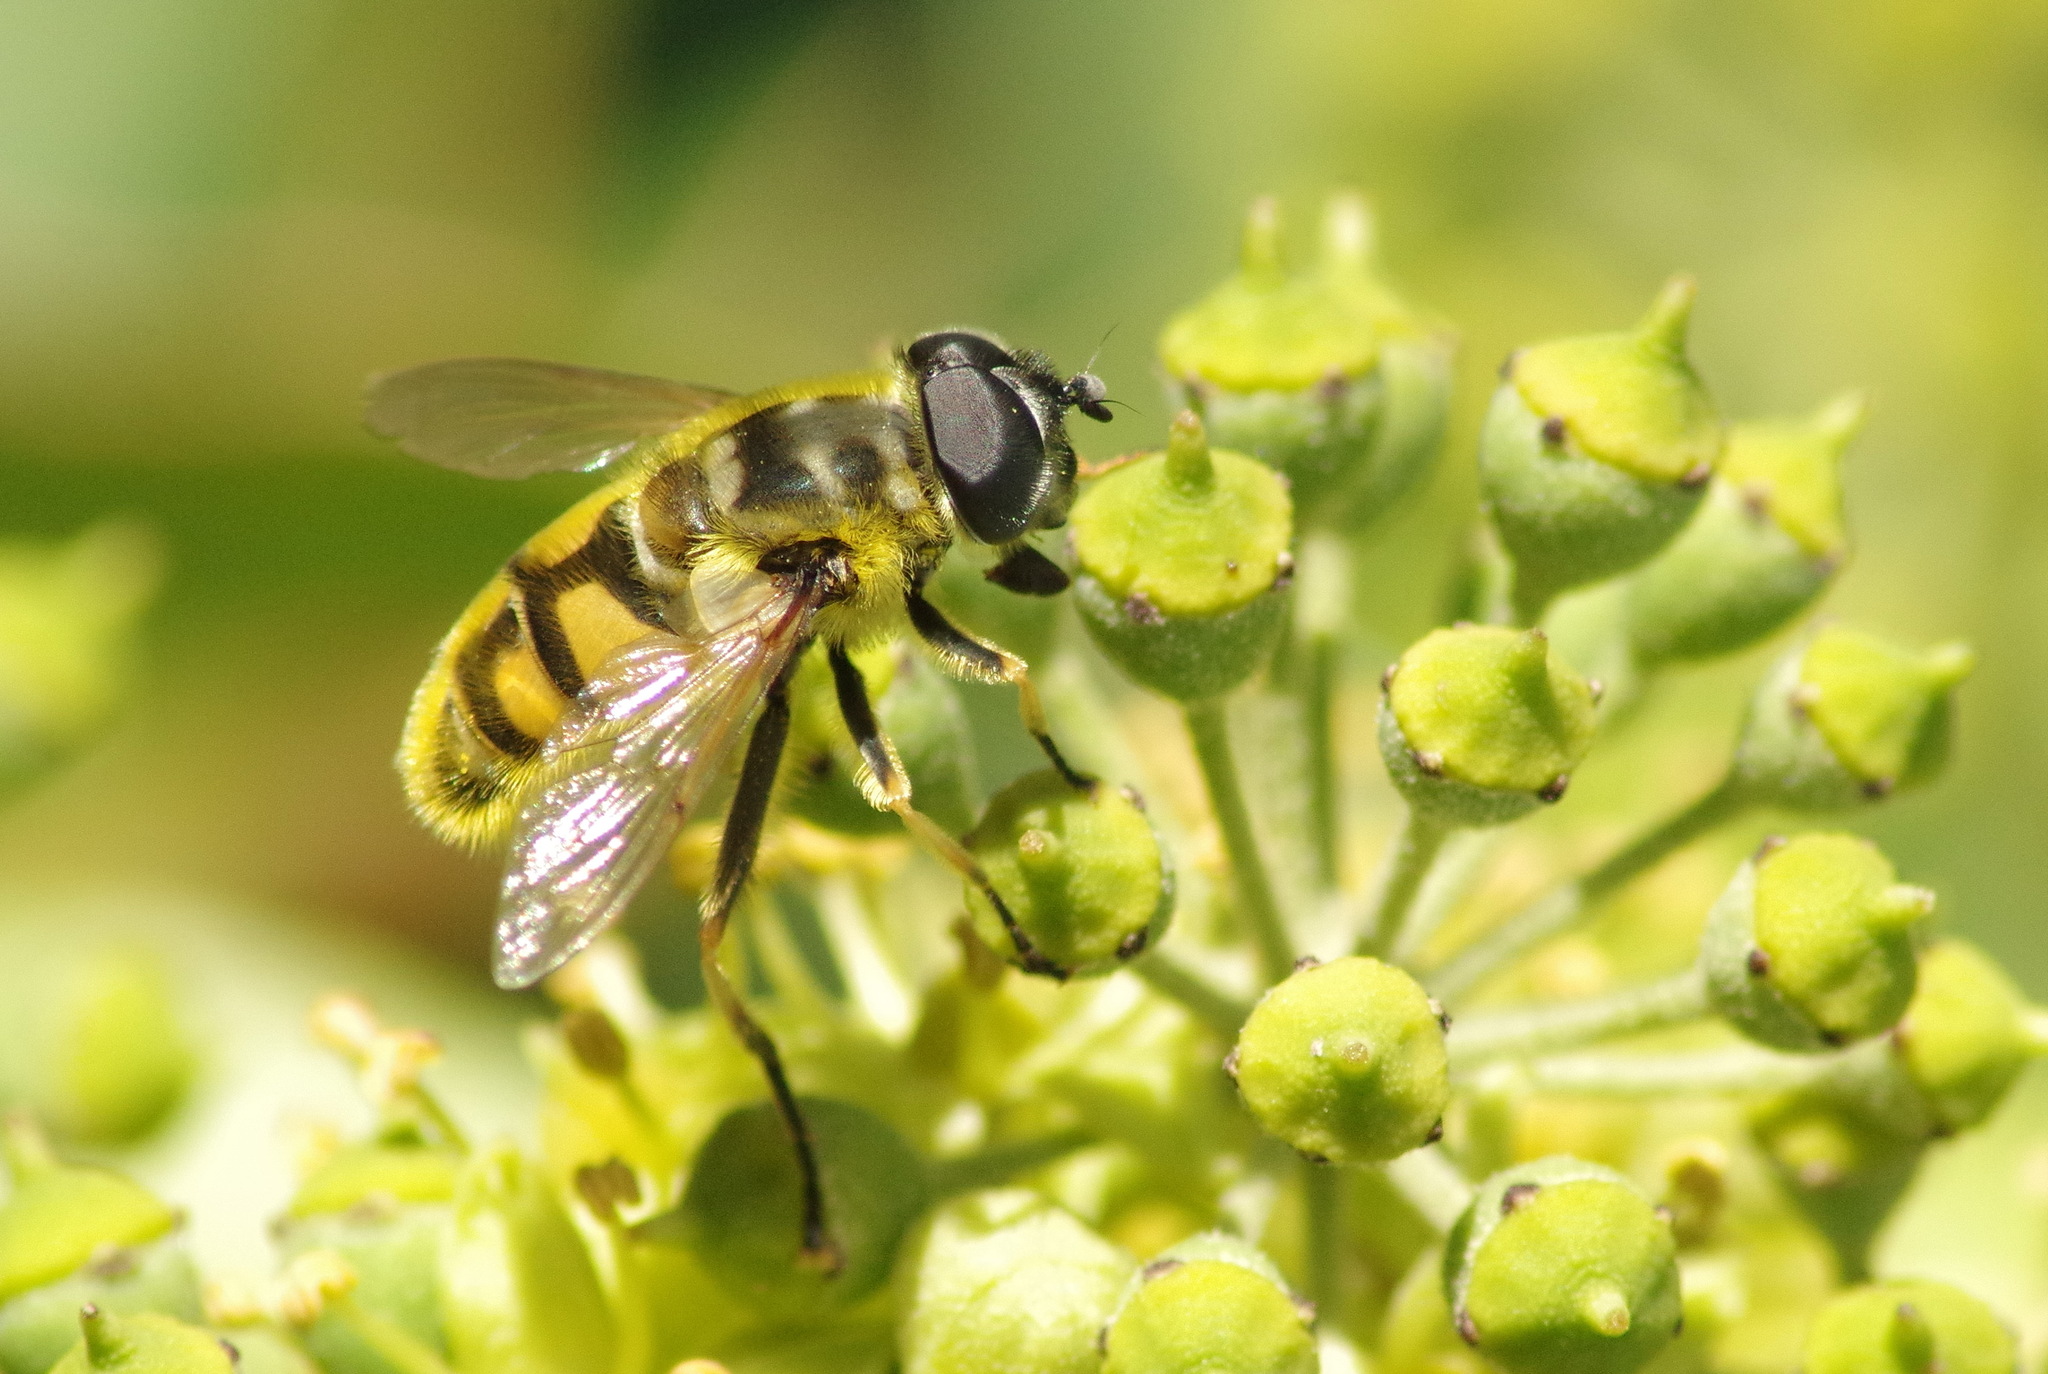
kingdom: Animalia
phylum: Arthropoda
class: Insecta
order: Diptera
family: Syrphidae
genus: Myathropa
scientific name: Myathropa florea
